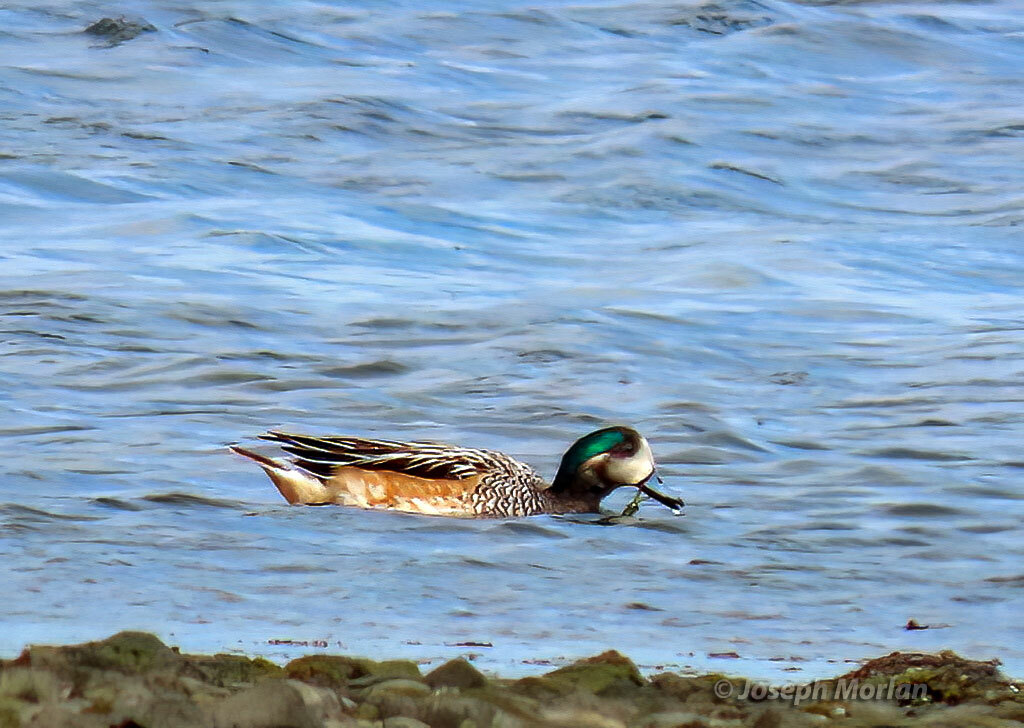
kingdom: Animalia
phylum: Chordata
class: Aves
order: Anseriformes
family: Anatidae
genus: Mareca
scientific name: Mareca sibilatrix
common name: Chiloe wigeon
